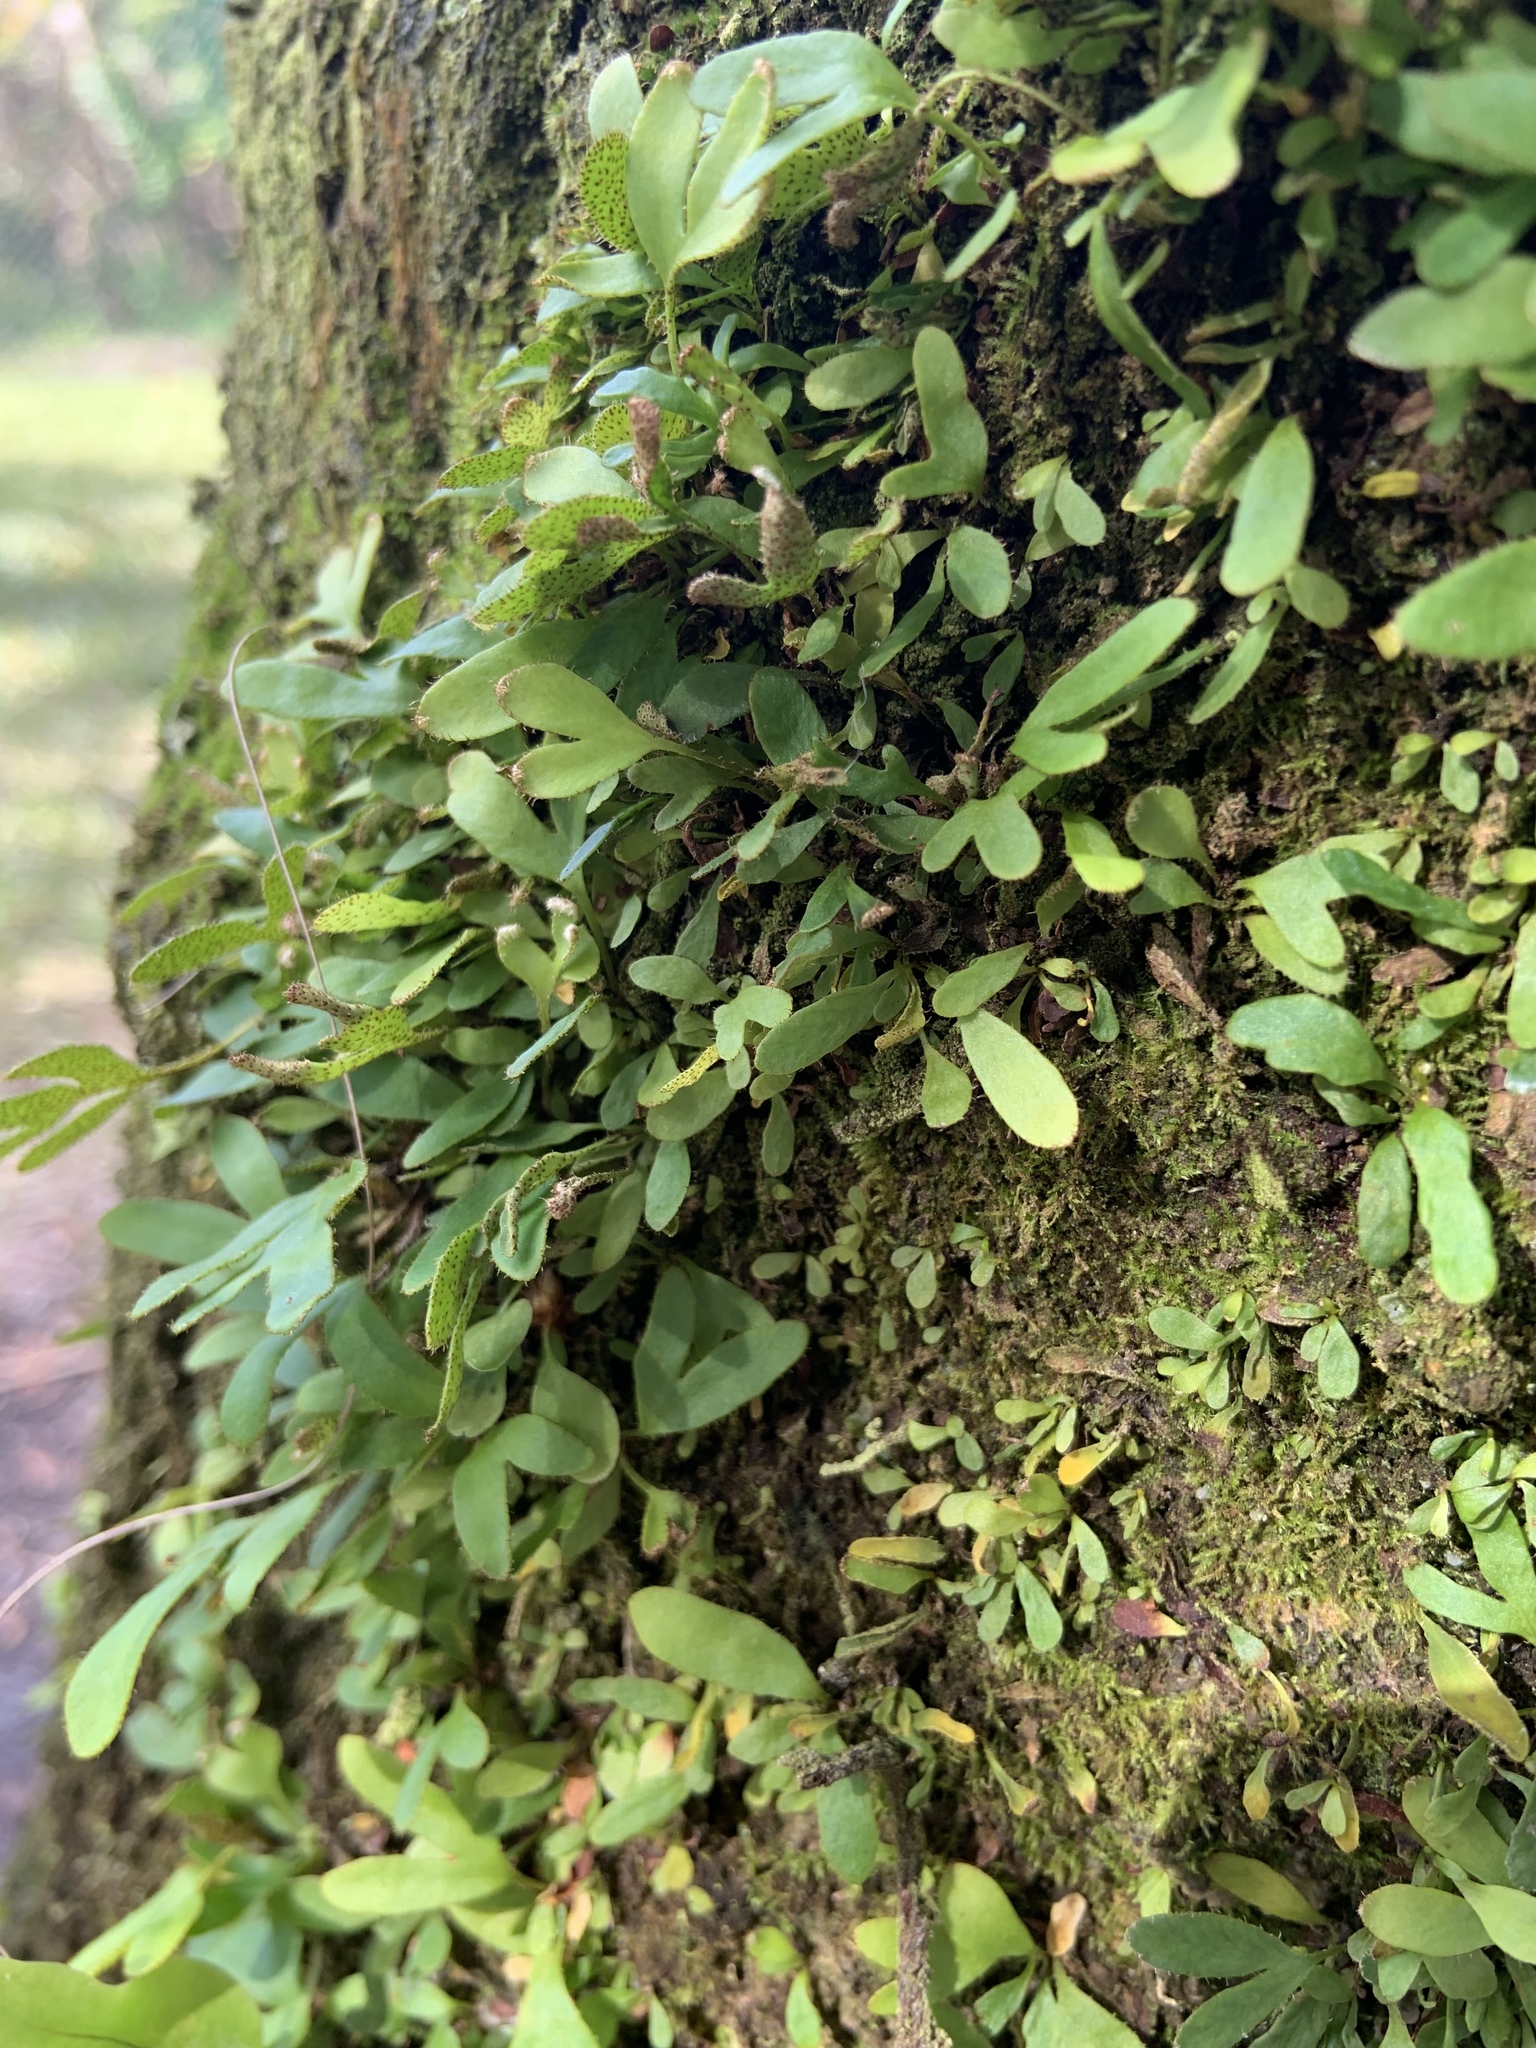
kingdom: Plantae
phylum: Tracheophyta
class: Polypodiopsida
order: Polypodiales
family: Polypodiaceae
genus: Pleopeltis
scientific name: Pleopeltis michauxiana
